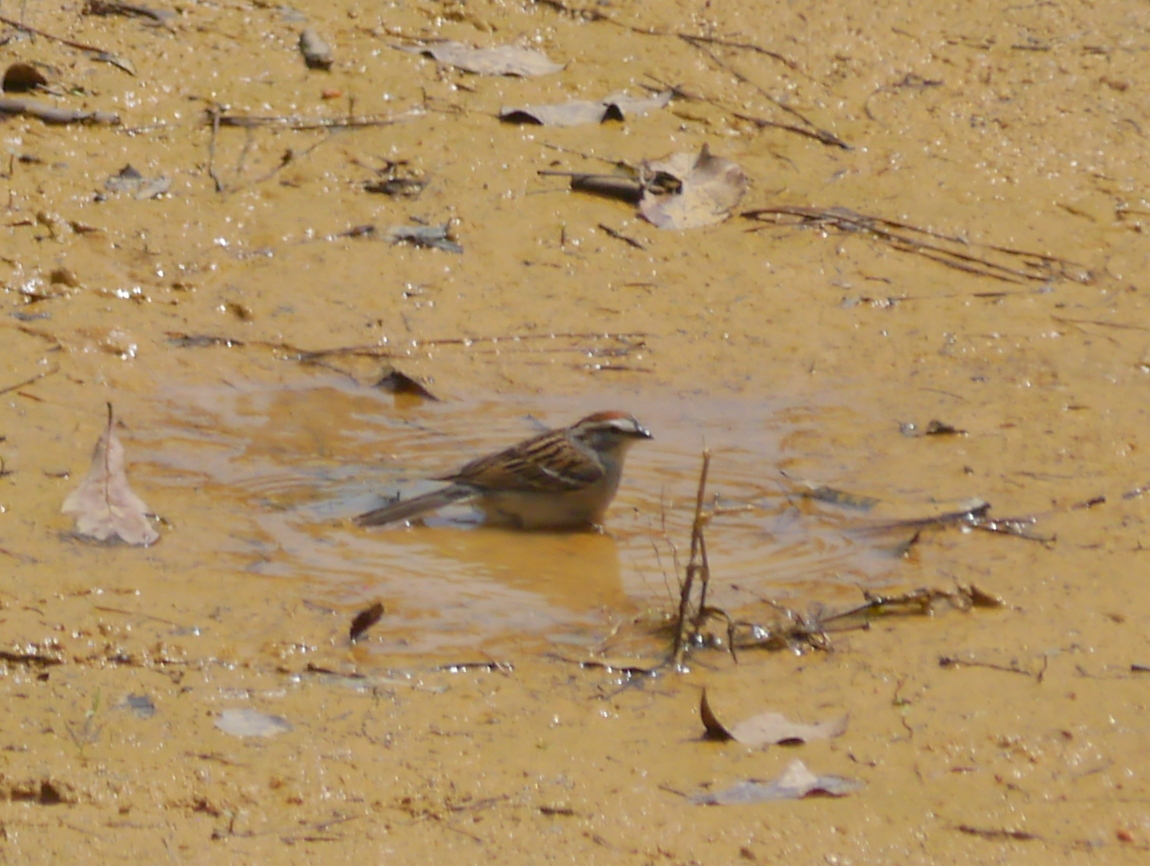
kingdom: Animalia
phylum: Chordata
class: Aves
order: Passeriformes
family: Passerellidae
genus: Spizella
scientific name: Spizella passerina
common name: Chipping sparrow
